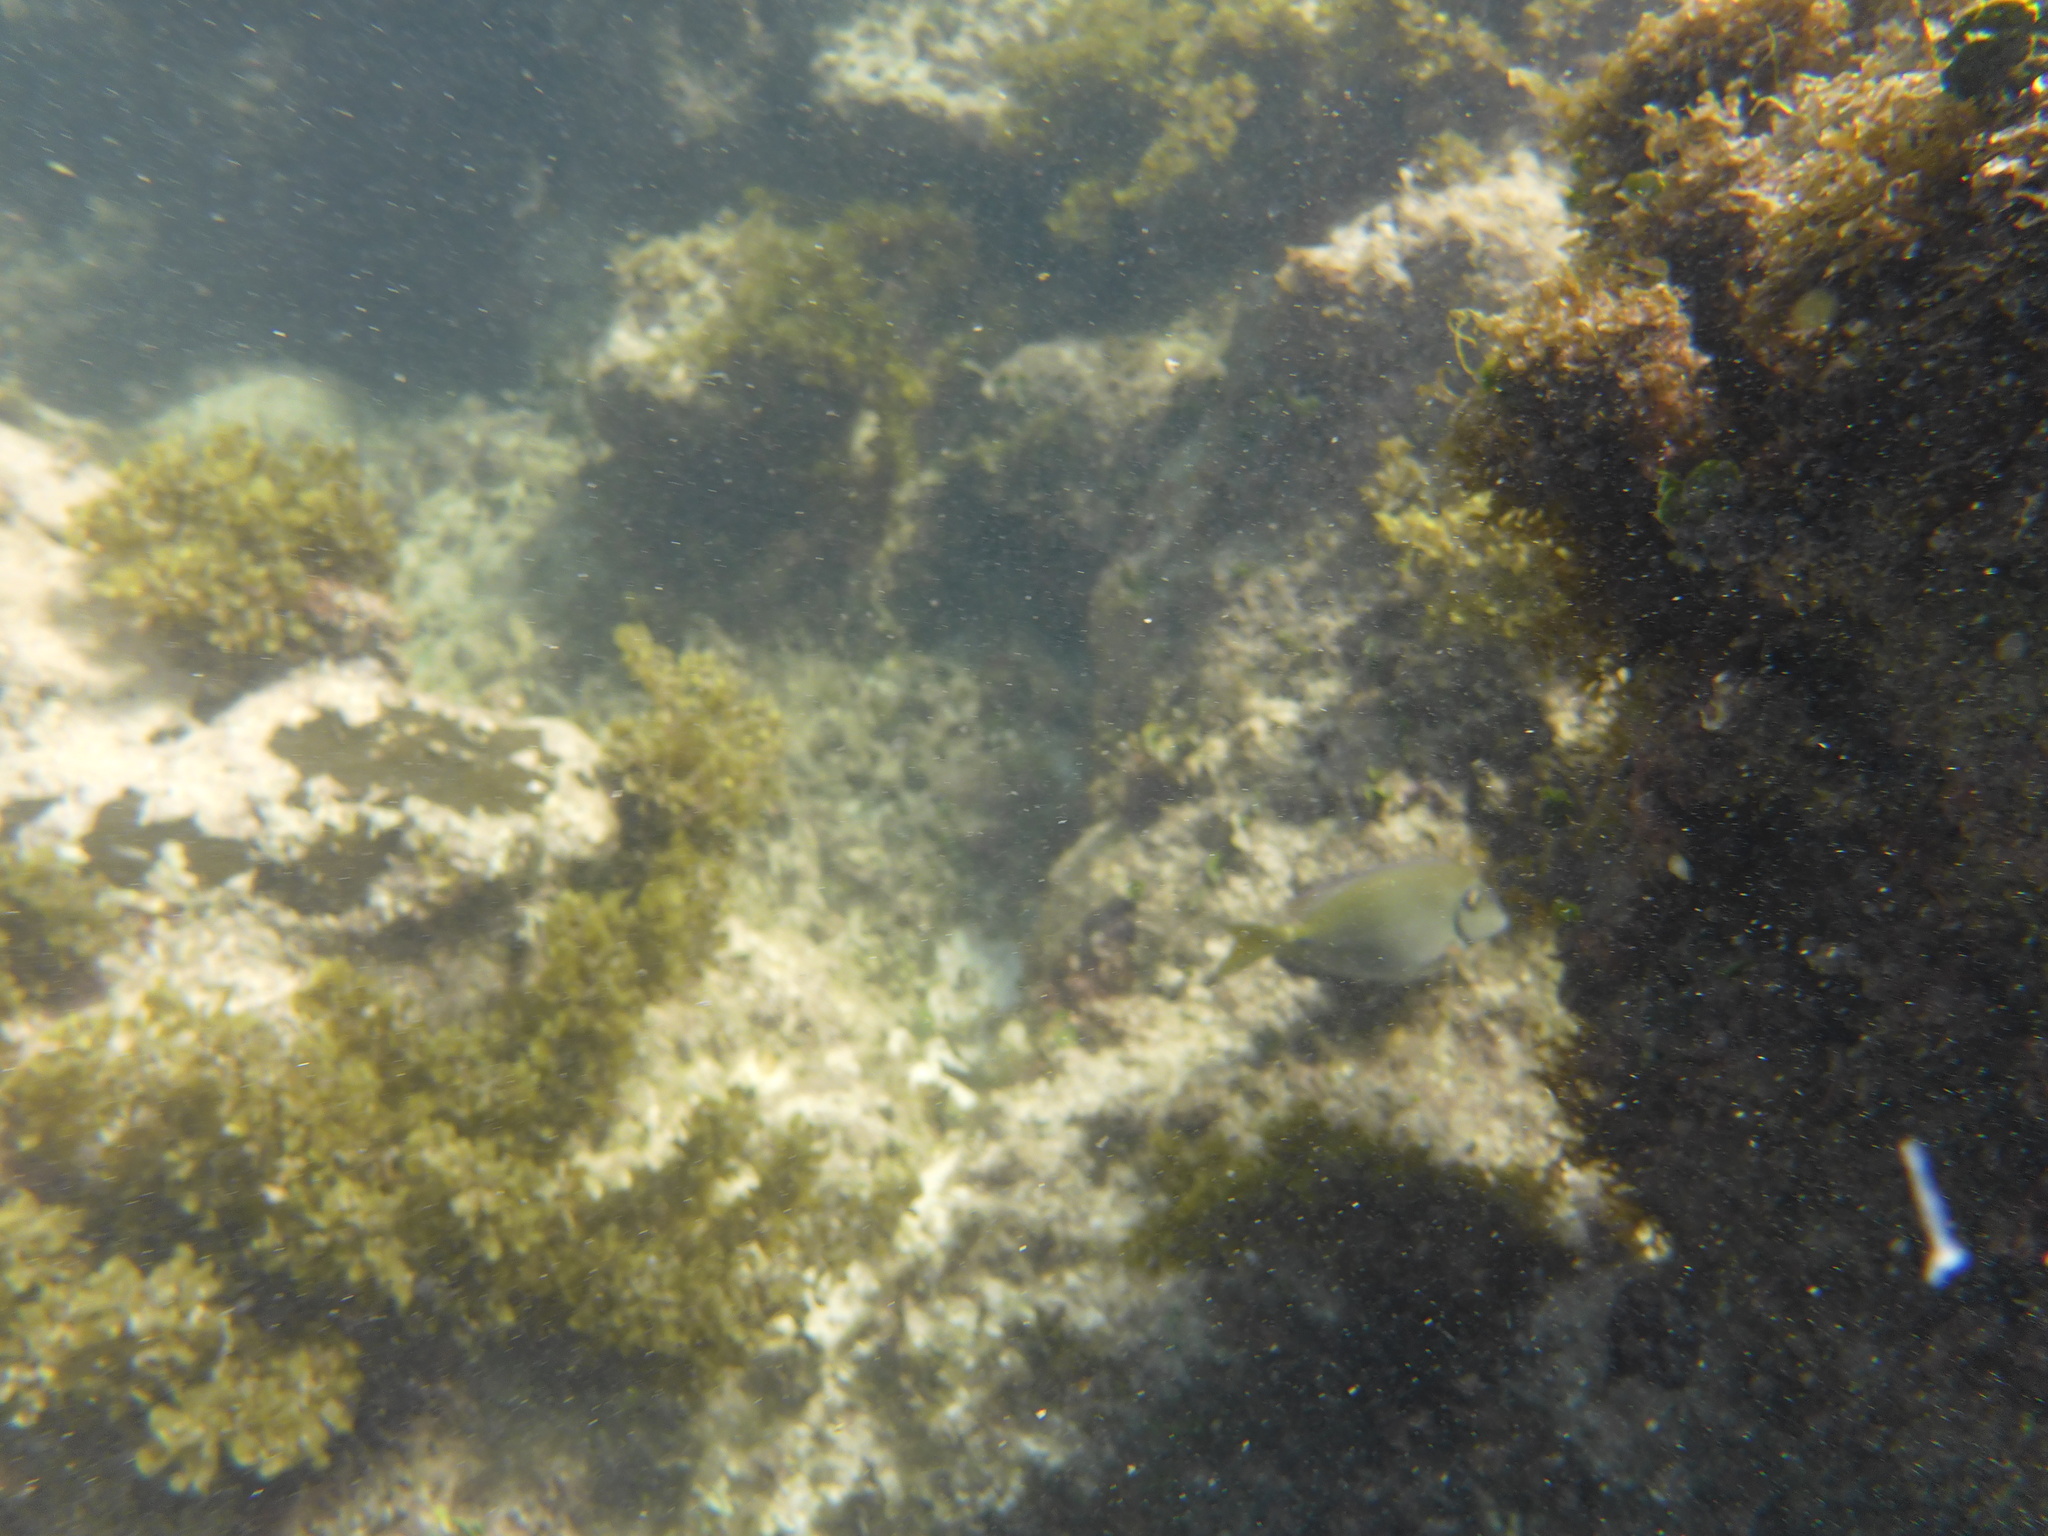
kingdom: Animalia
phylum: Chordata
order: Perciformes
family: Acanthuridae
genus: Acanthurus
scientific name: Acanthurus bahianus
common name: Ocean surgeon
